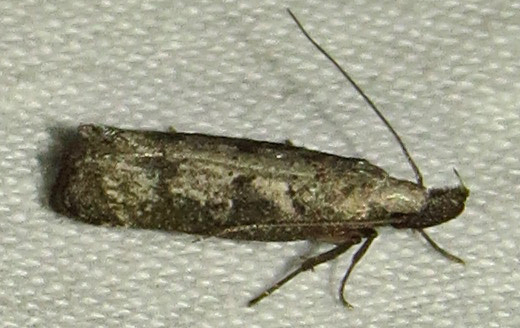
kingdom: Animalia
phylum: Arthropoda
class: Insecta
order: Lepidoptera
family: Gelechiidae
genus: Dichomeris
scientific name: Dichomeris inversella
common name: Inverse dichomeris moth
